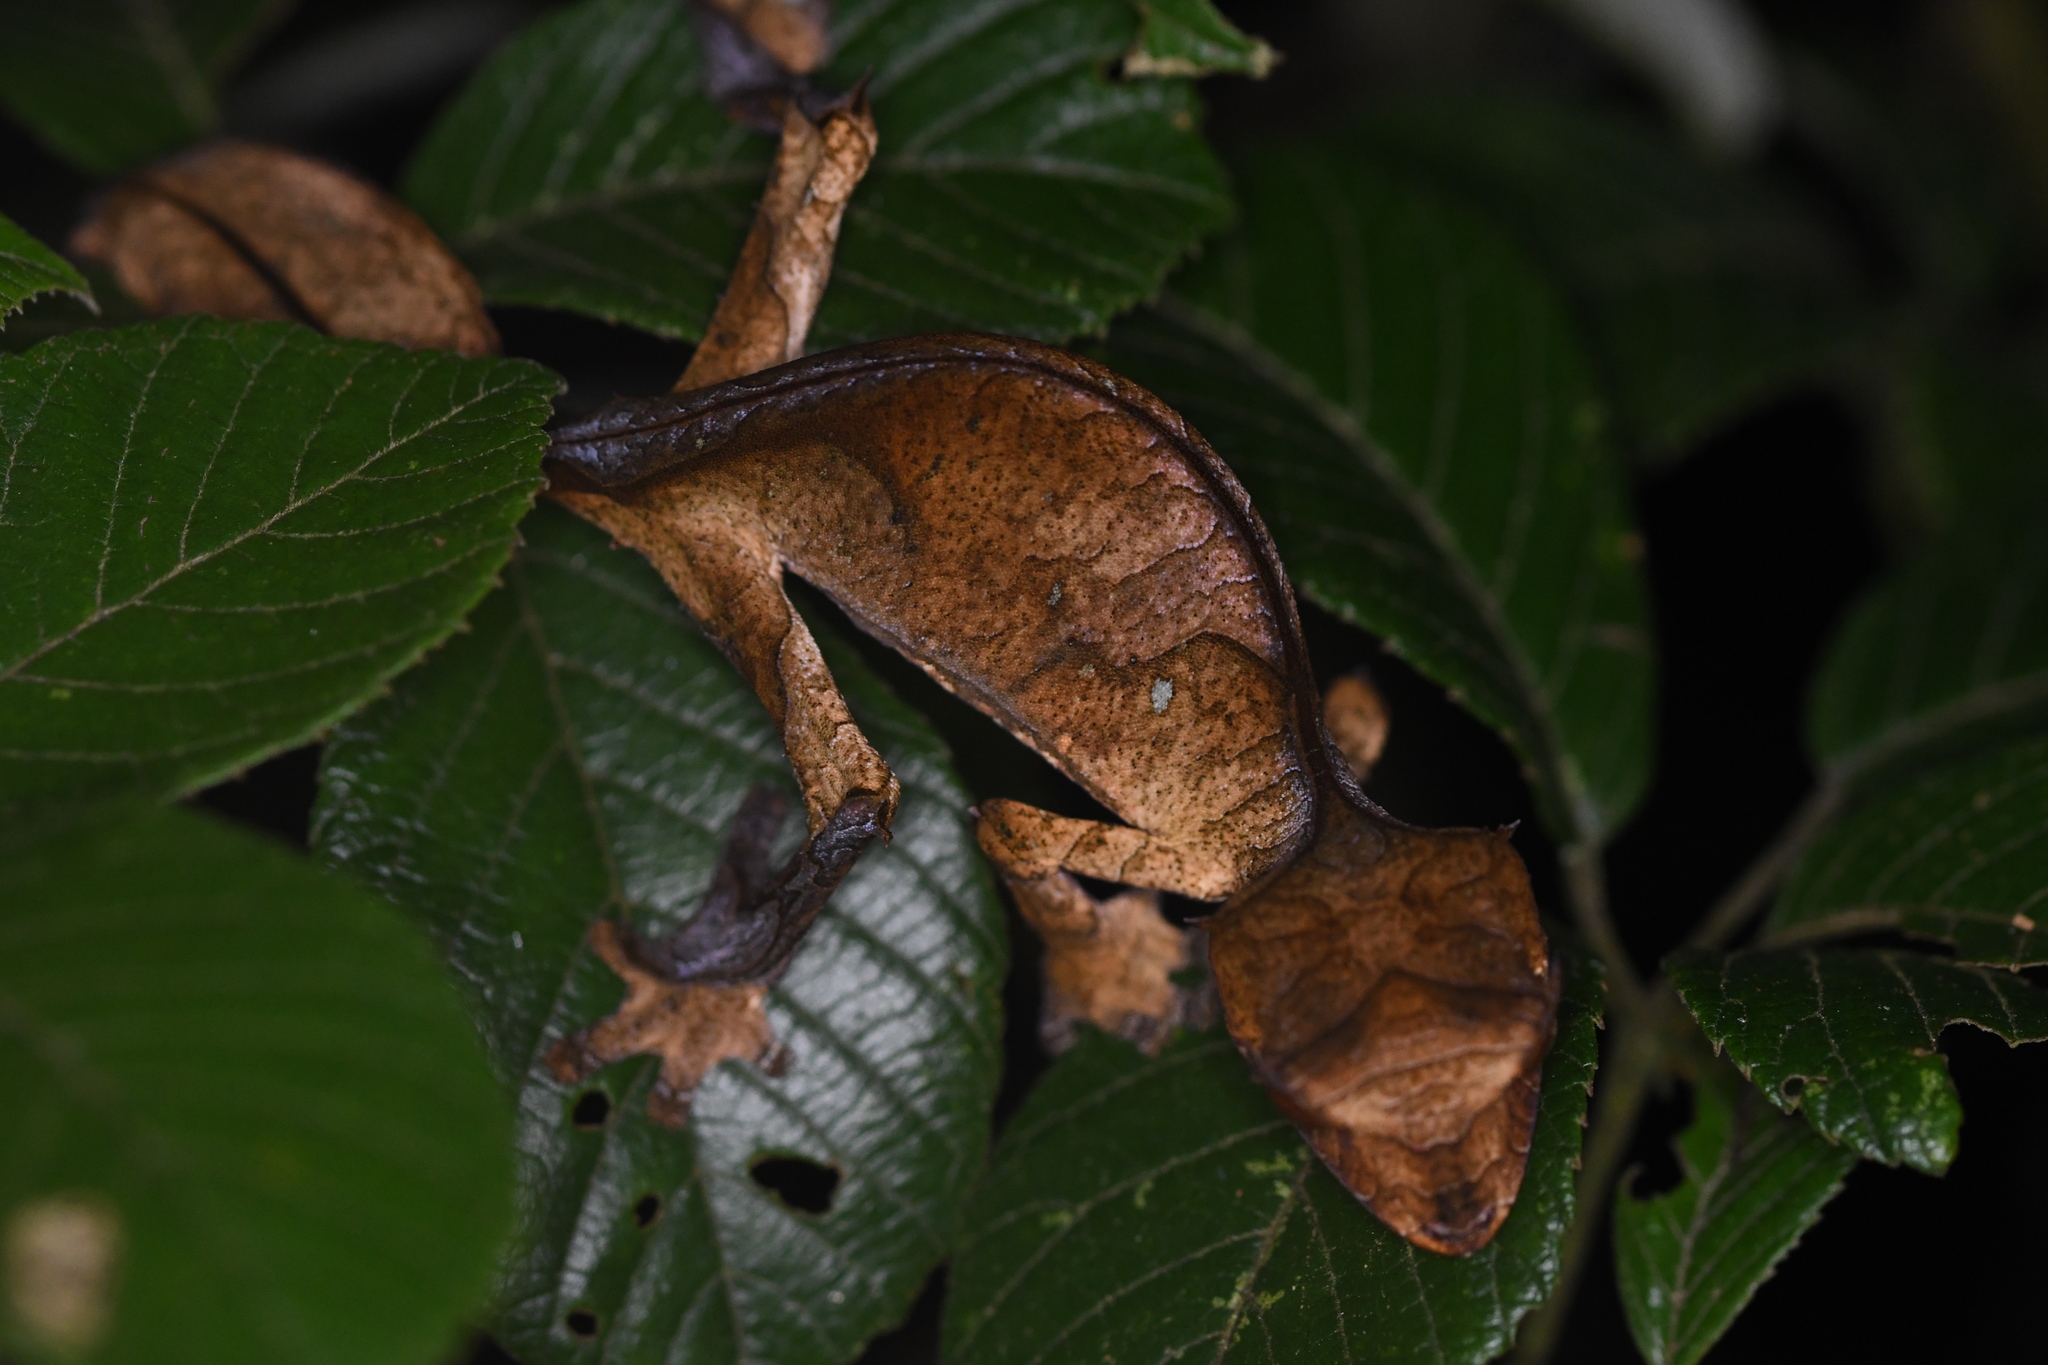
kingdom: Animalia
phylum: Chordata
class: Squamata
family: Gekkonidae
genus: Uroplatus
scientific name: Uroplatus phantasticus
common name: Phantastic leaf-tailed gecko
